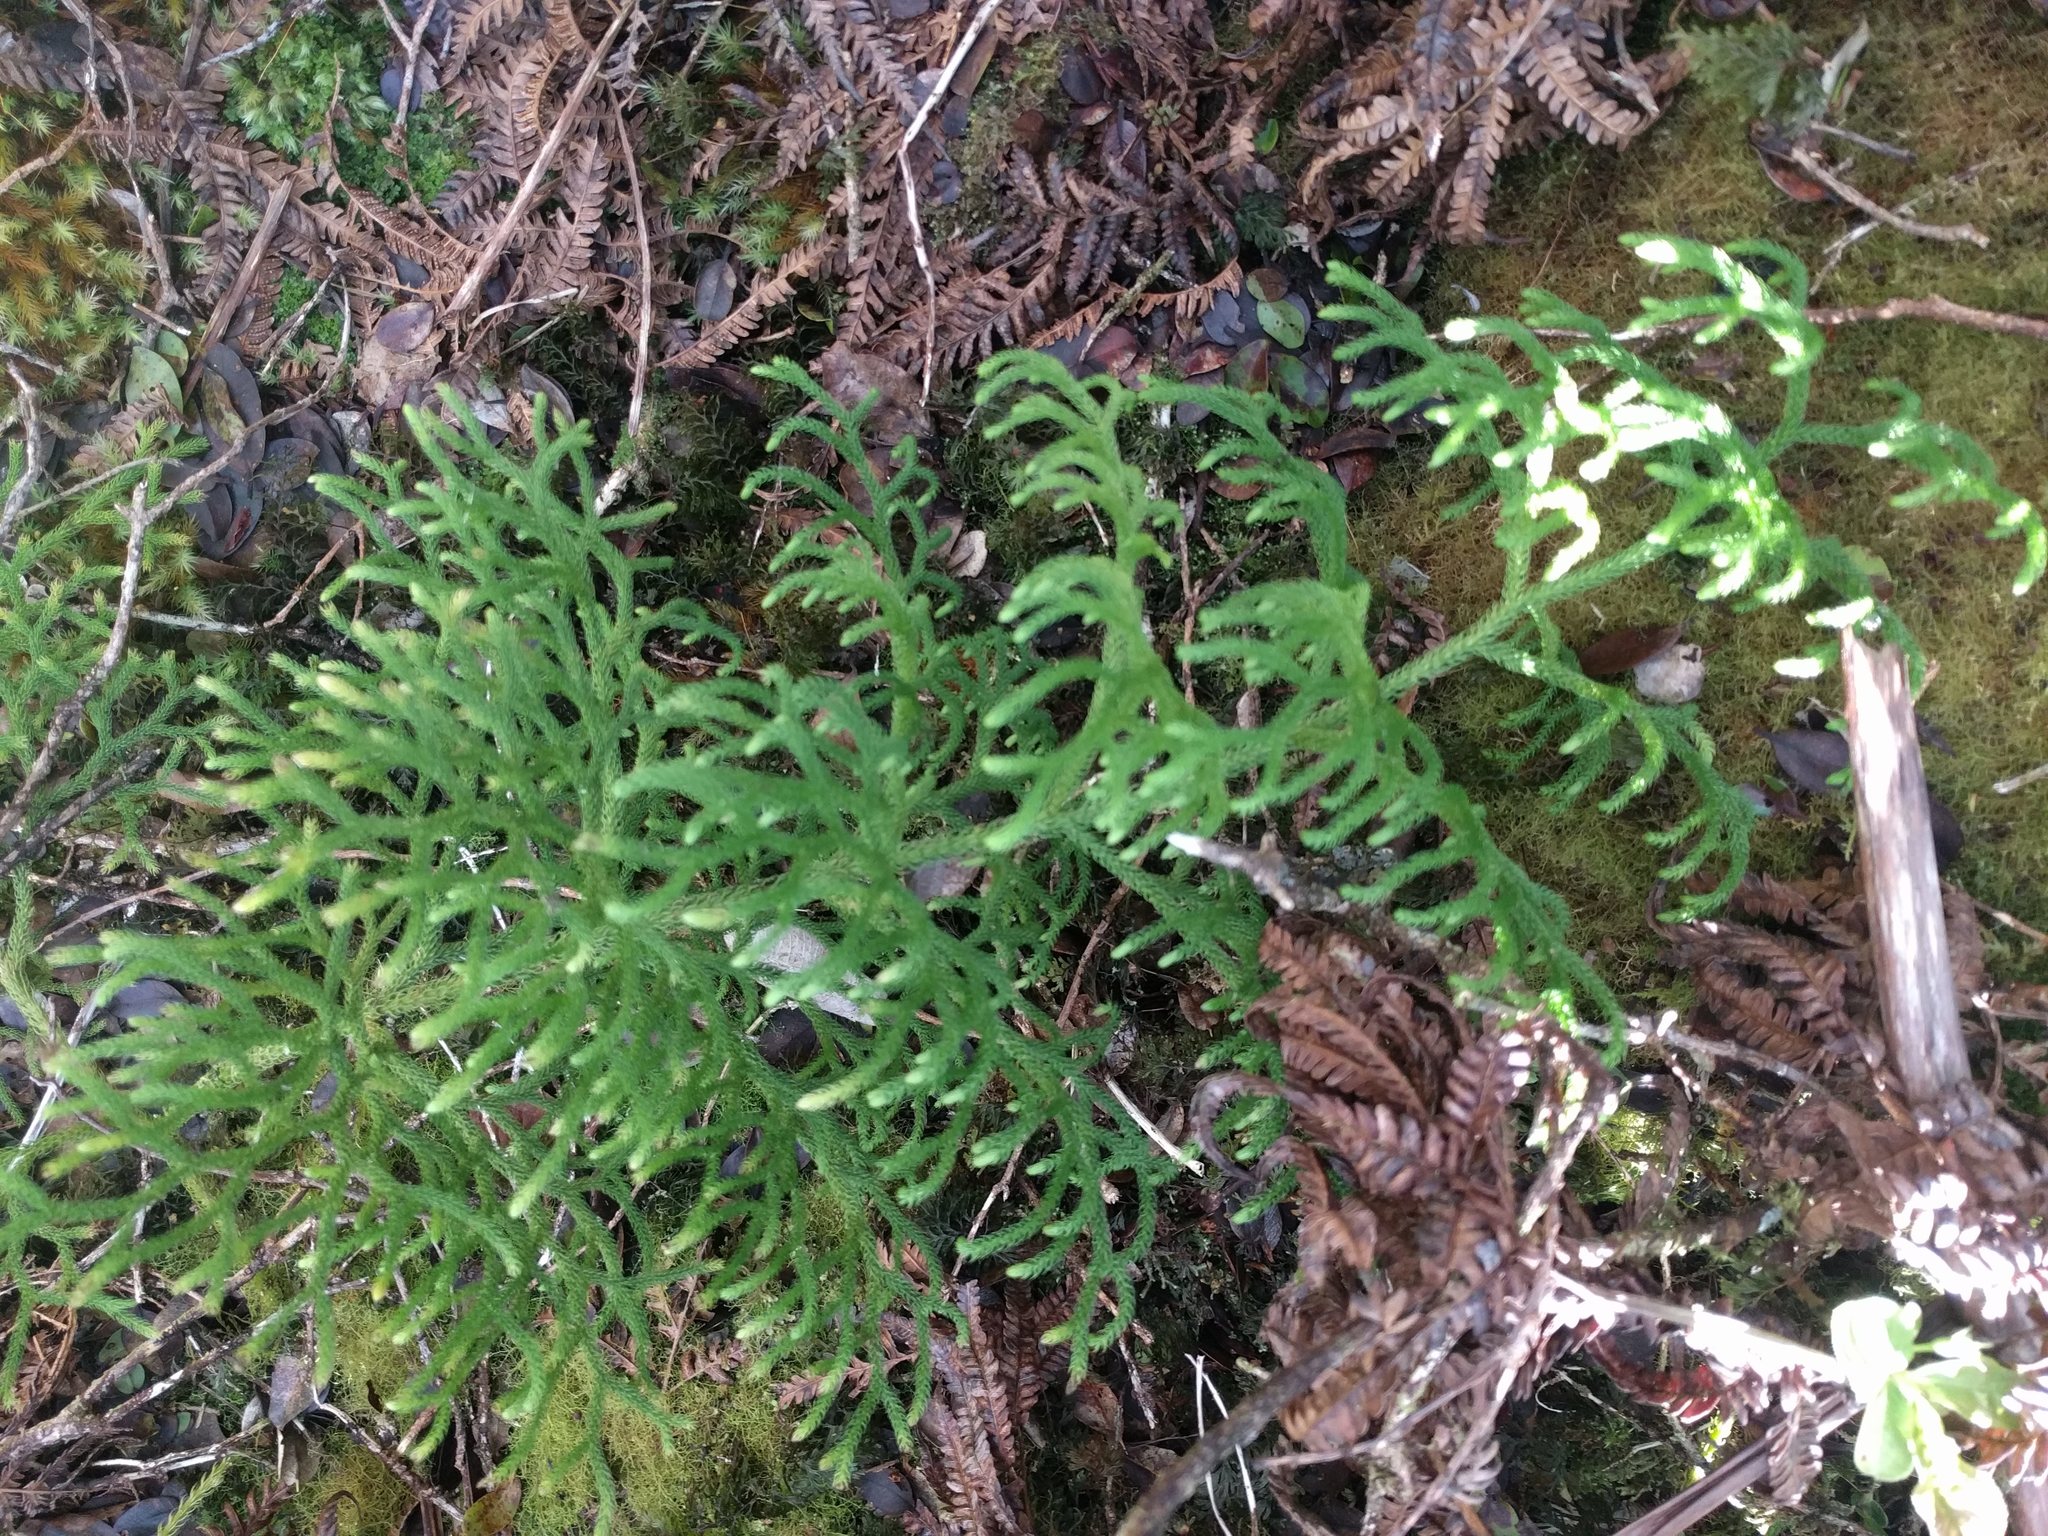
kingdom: Plantae
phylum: Tracheophyta
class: Lycopodiopsida
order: Lycopodiales
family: Lycopodiaceae
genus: Palhinhaea
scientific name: Palhinhaea cernua
